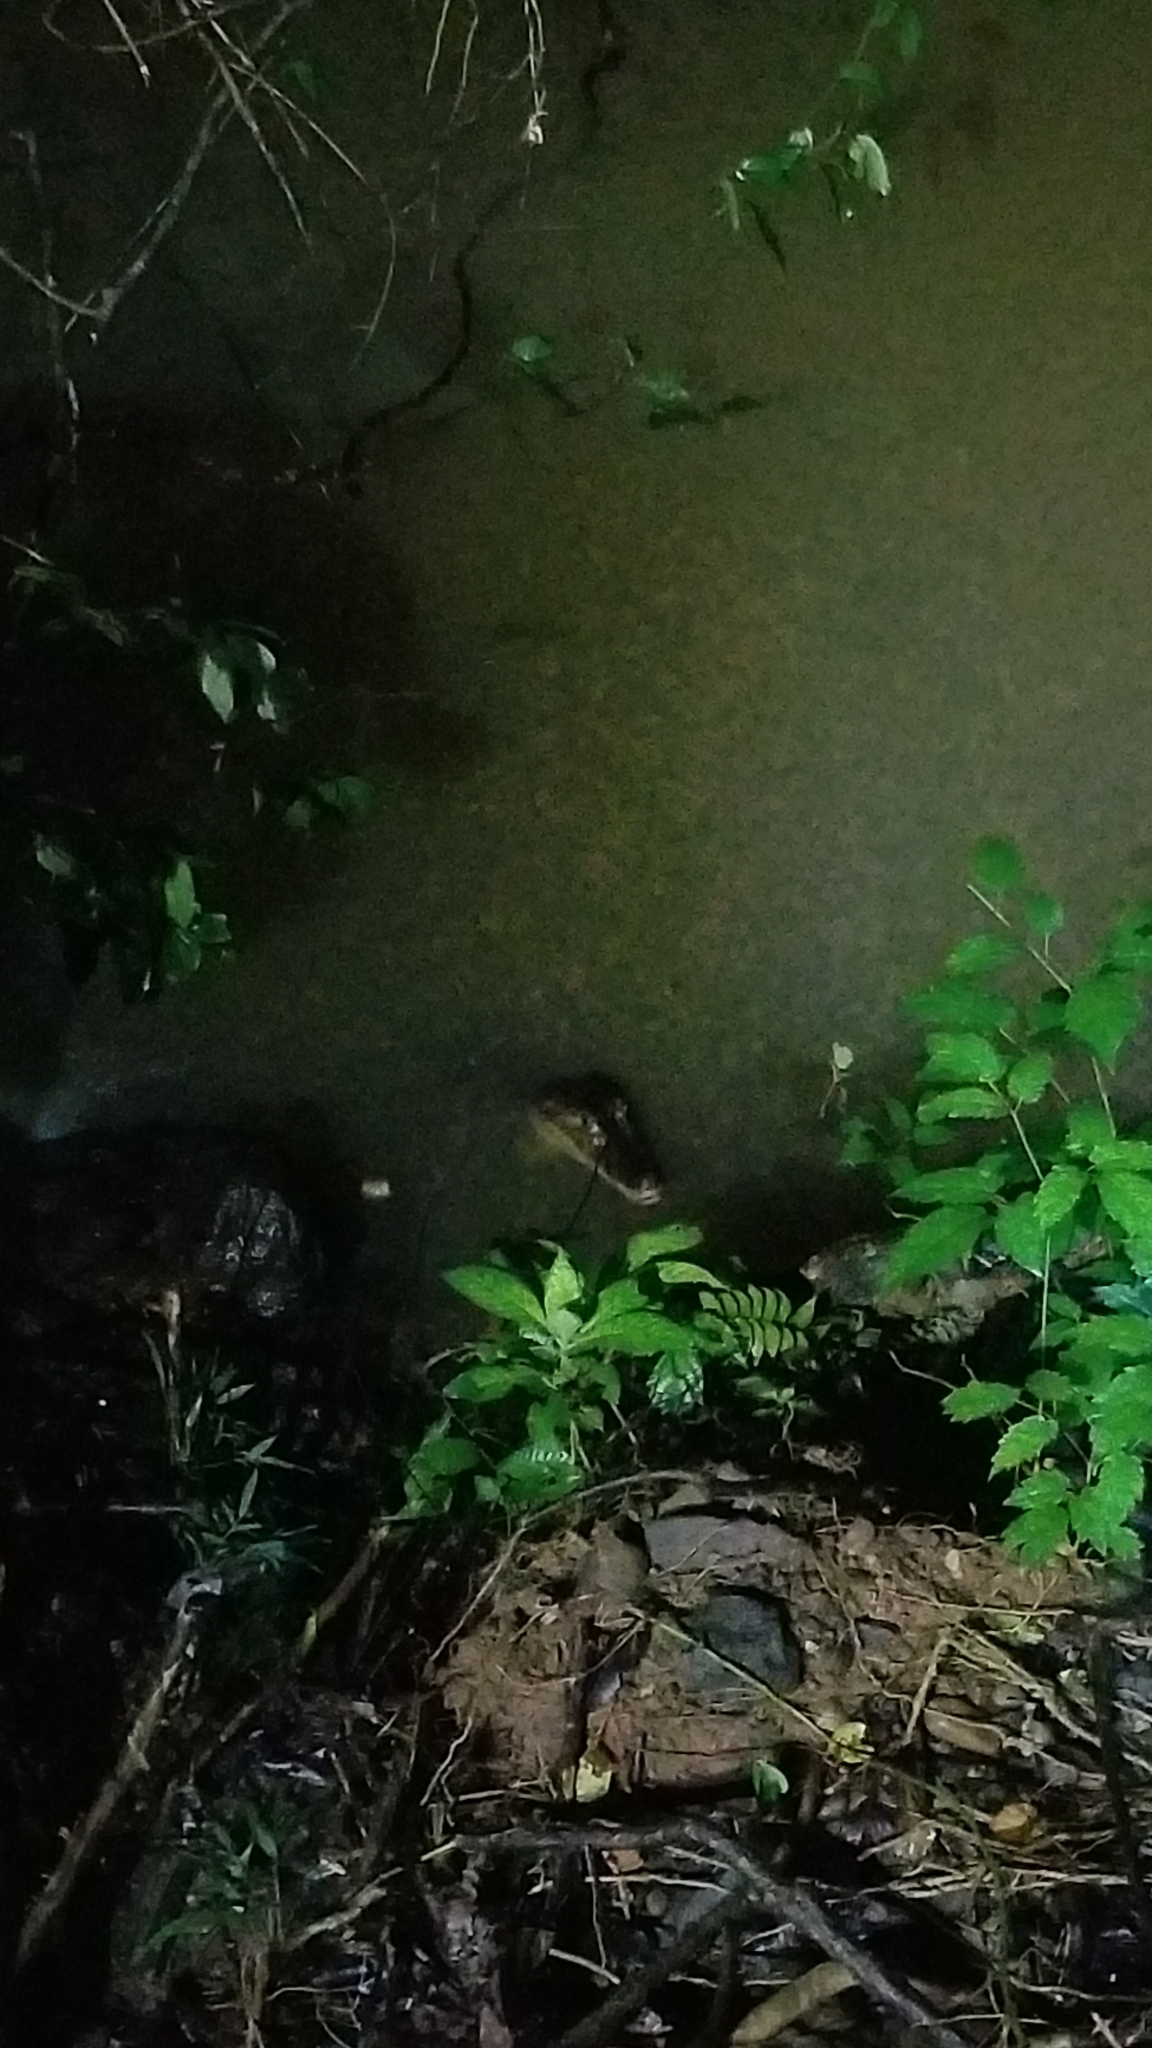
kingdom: Animalia
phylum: Chordata
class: Crocodylia
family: Alligatoridae
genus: Caiman
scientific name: Caiman crocodilus
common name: Common caiman
